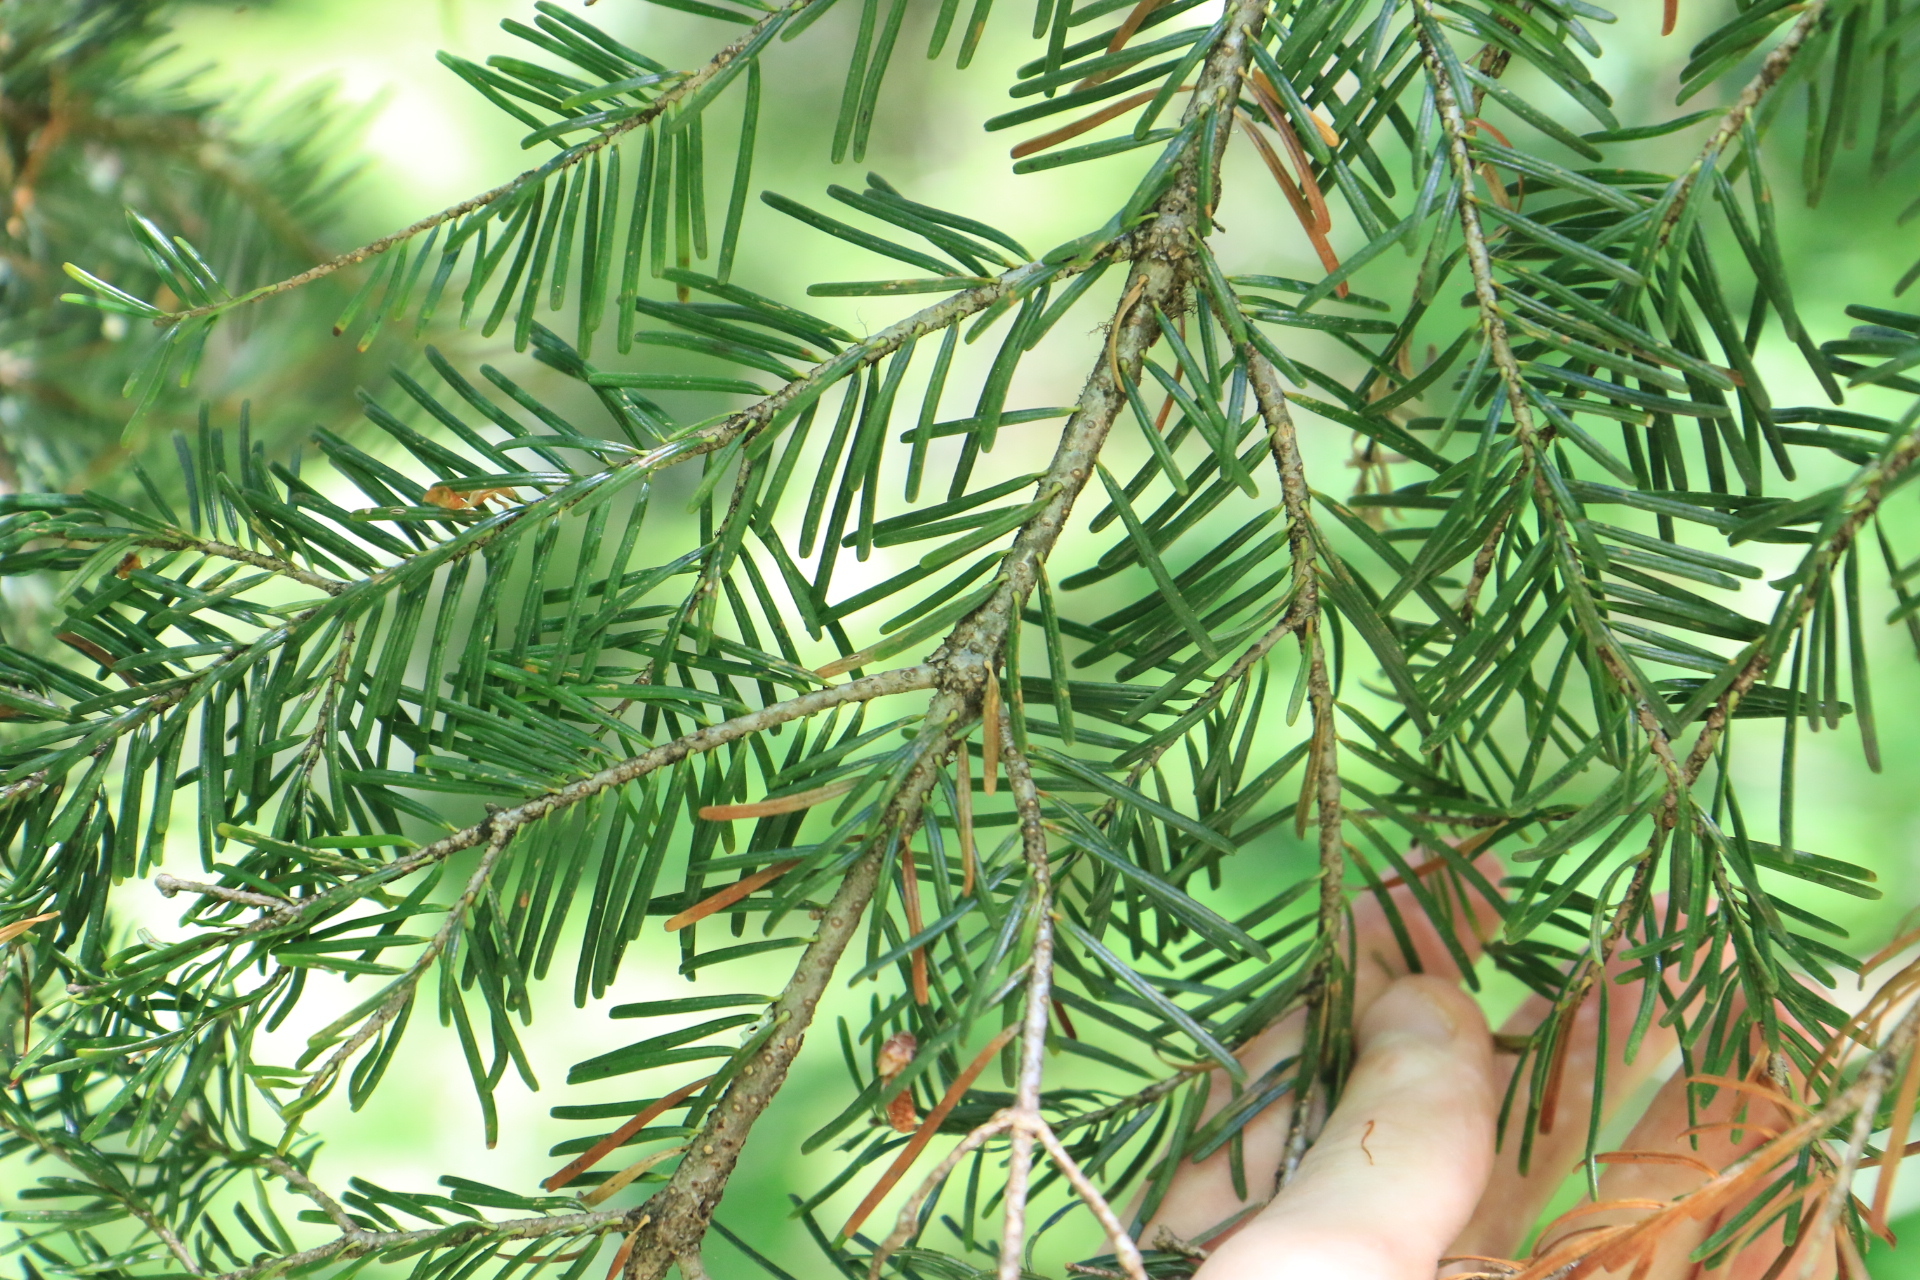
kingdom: Plantae
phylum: Tracheophyta
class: Pinopsida
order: Pinales
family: Pinaceae
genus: Abies
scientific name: Abies amabilis
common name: Pacific silver fir
